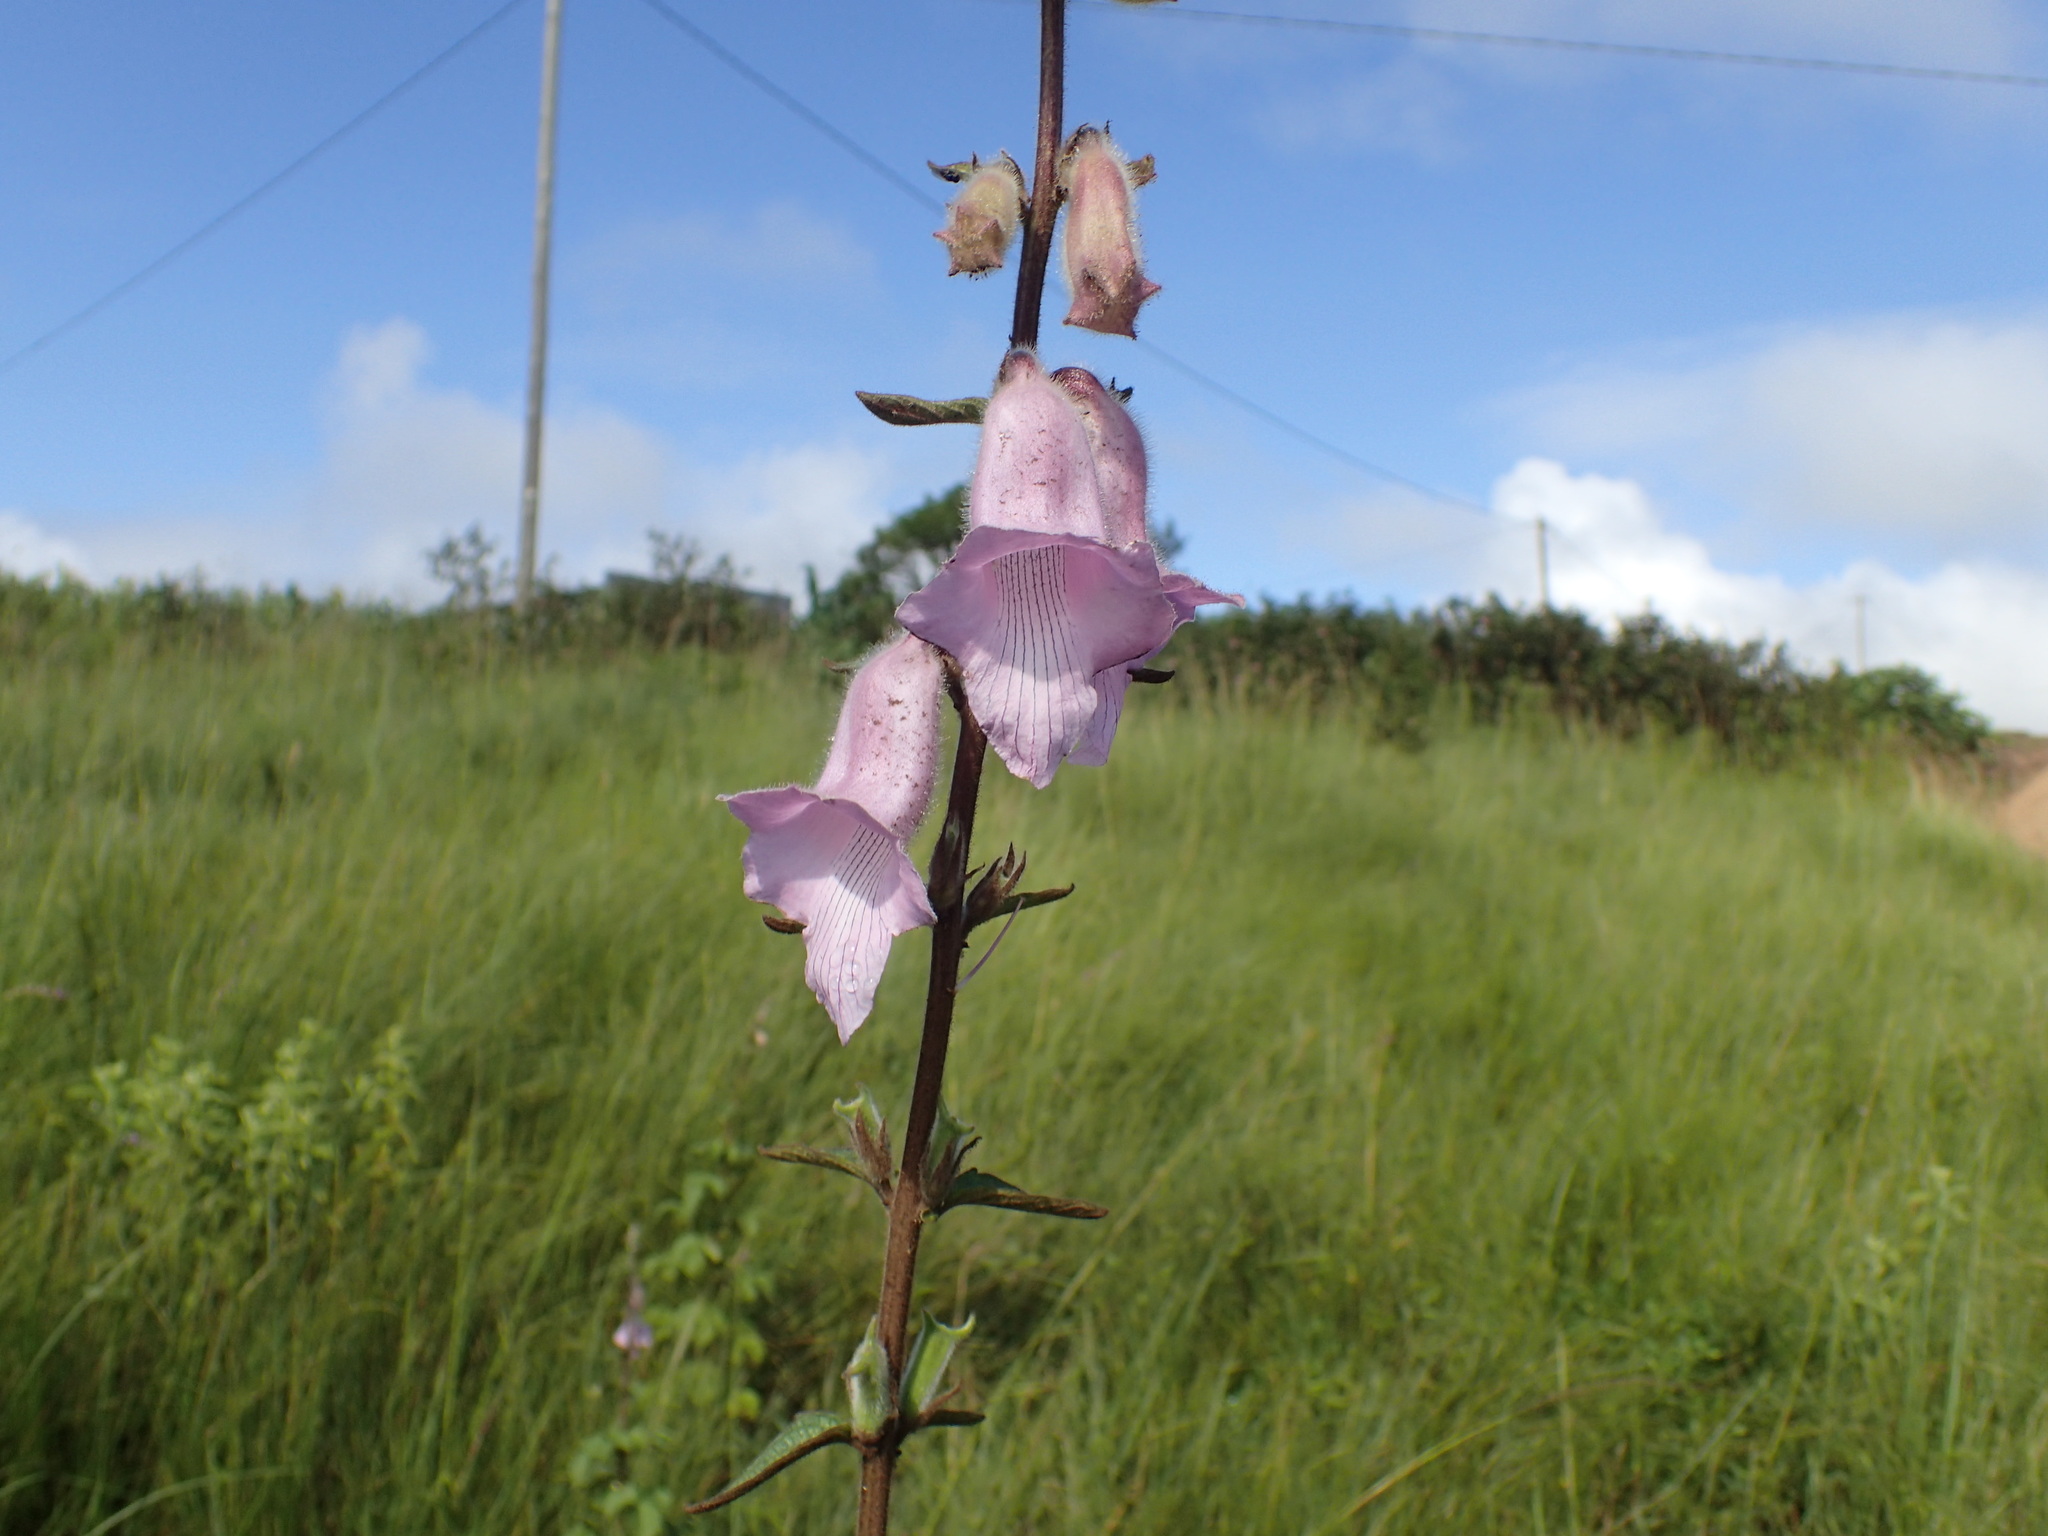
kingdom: Plantae
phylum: Tracheophyta
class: Magnoliopsida
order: Lamiales
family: Pedaliaceae
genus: Sesamum
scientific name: Sesamum trilobum
